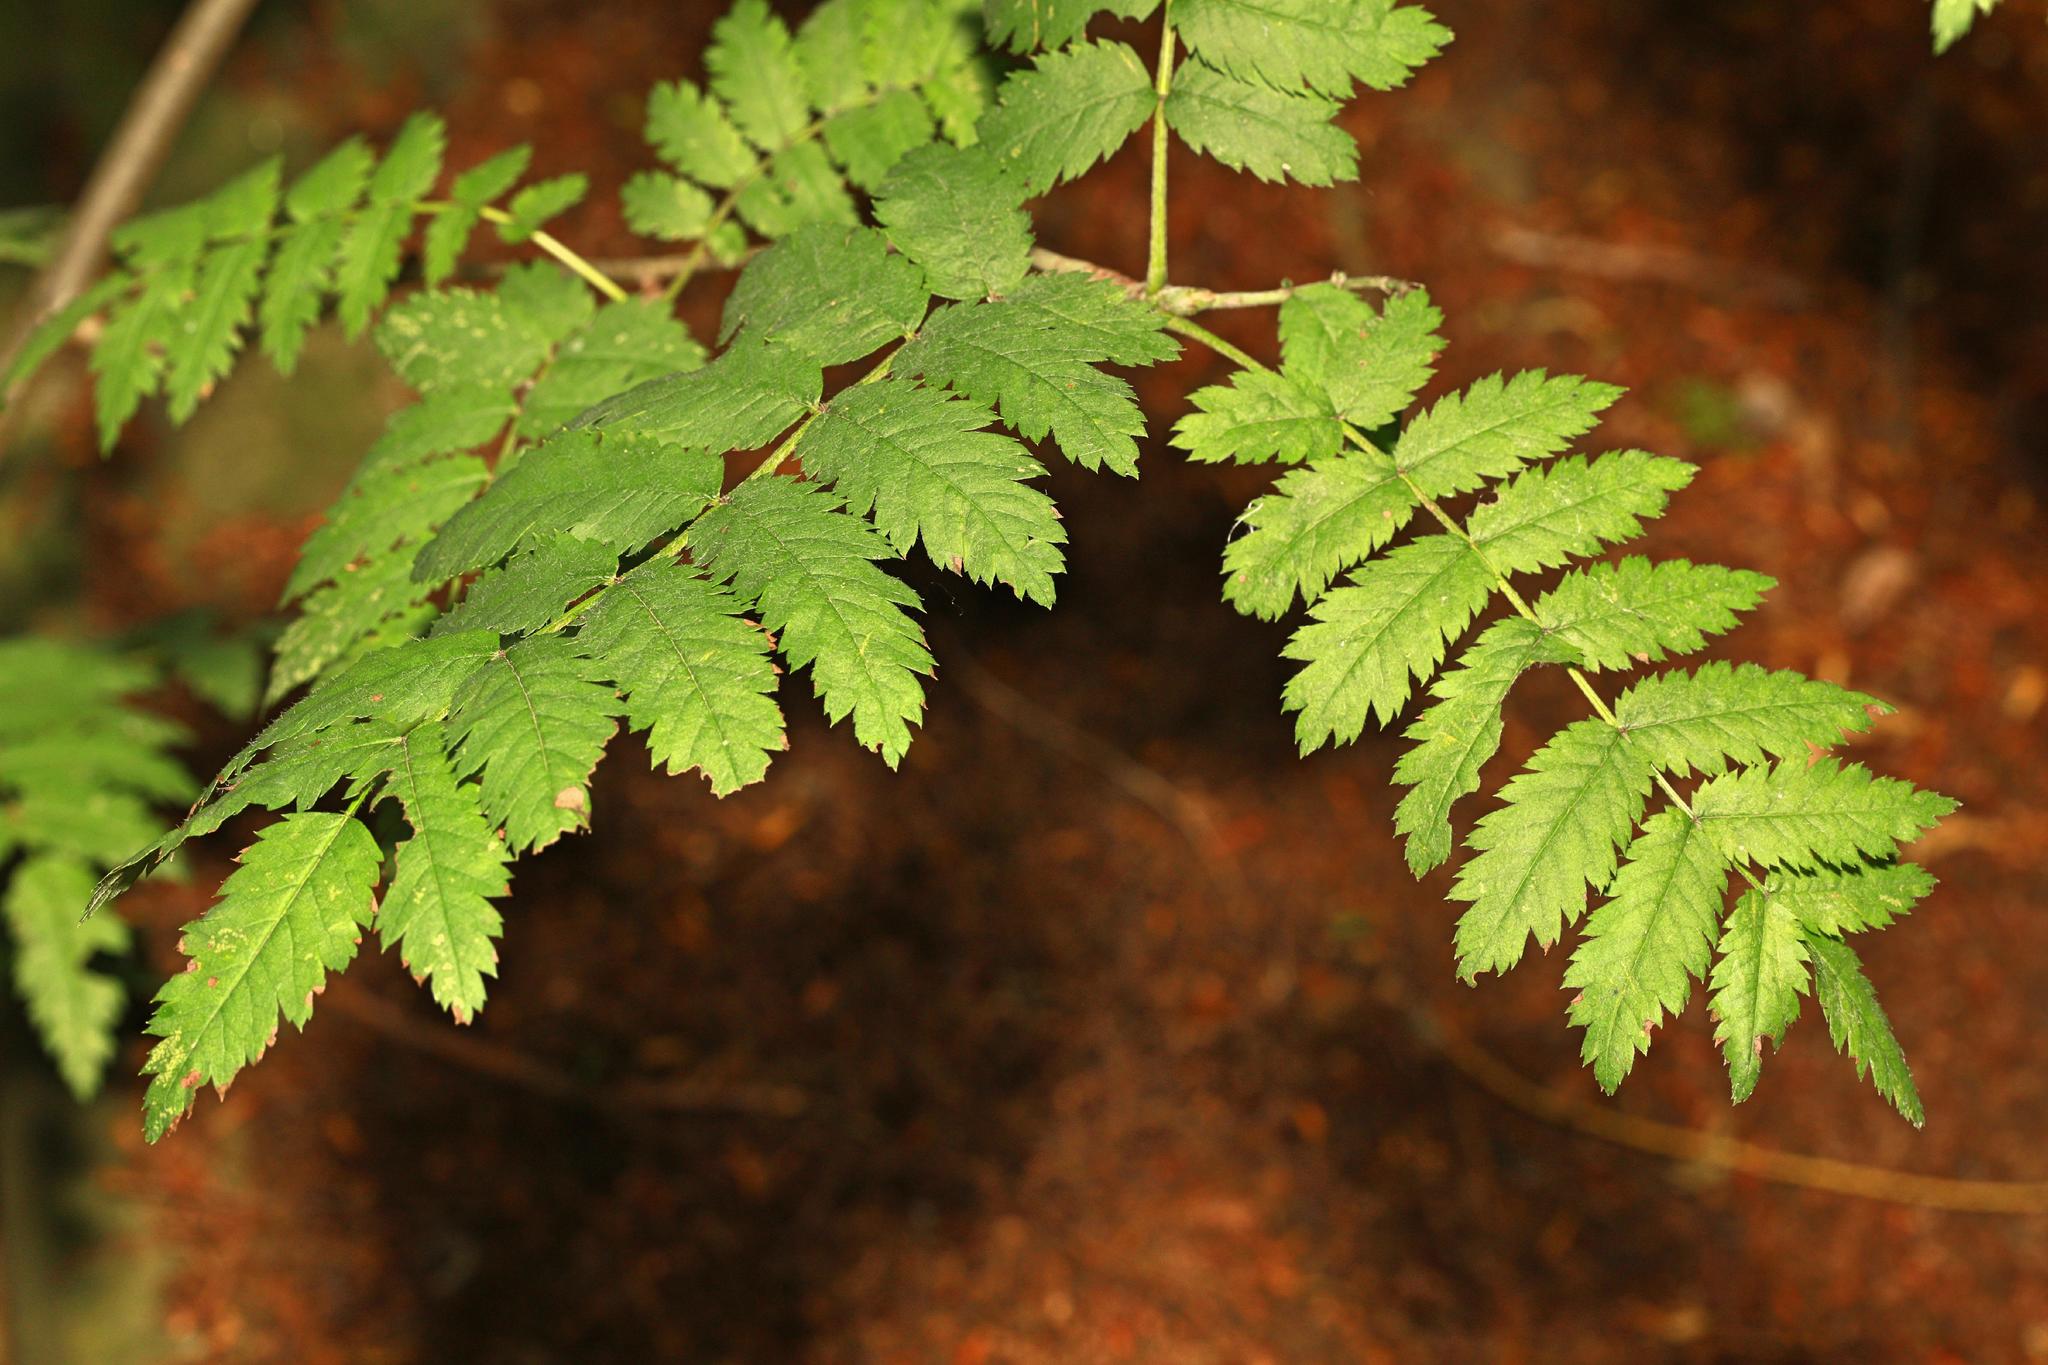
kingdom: Plantae
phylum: Tracheophyta
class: Magnoliopsida
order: Rosales
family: Rosaceae
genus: Sorbus
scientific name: Sorbus aucuparia
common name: Rowan
